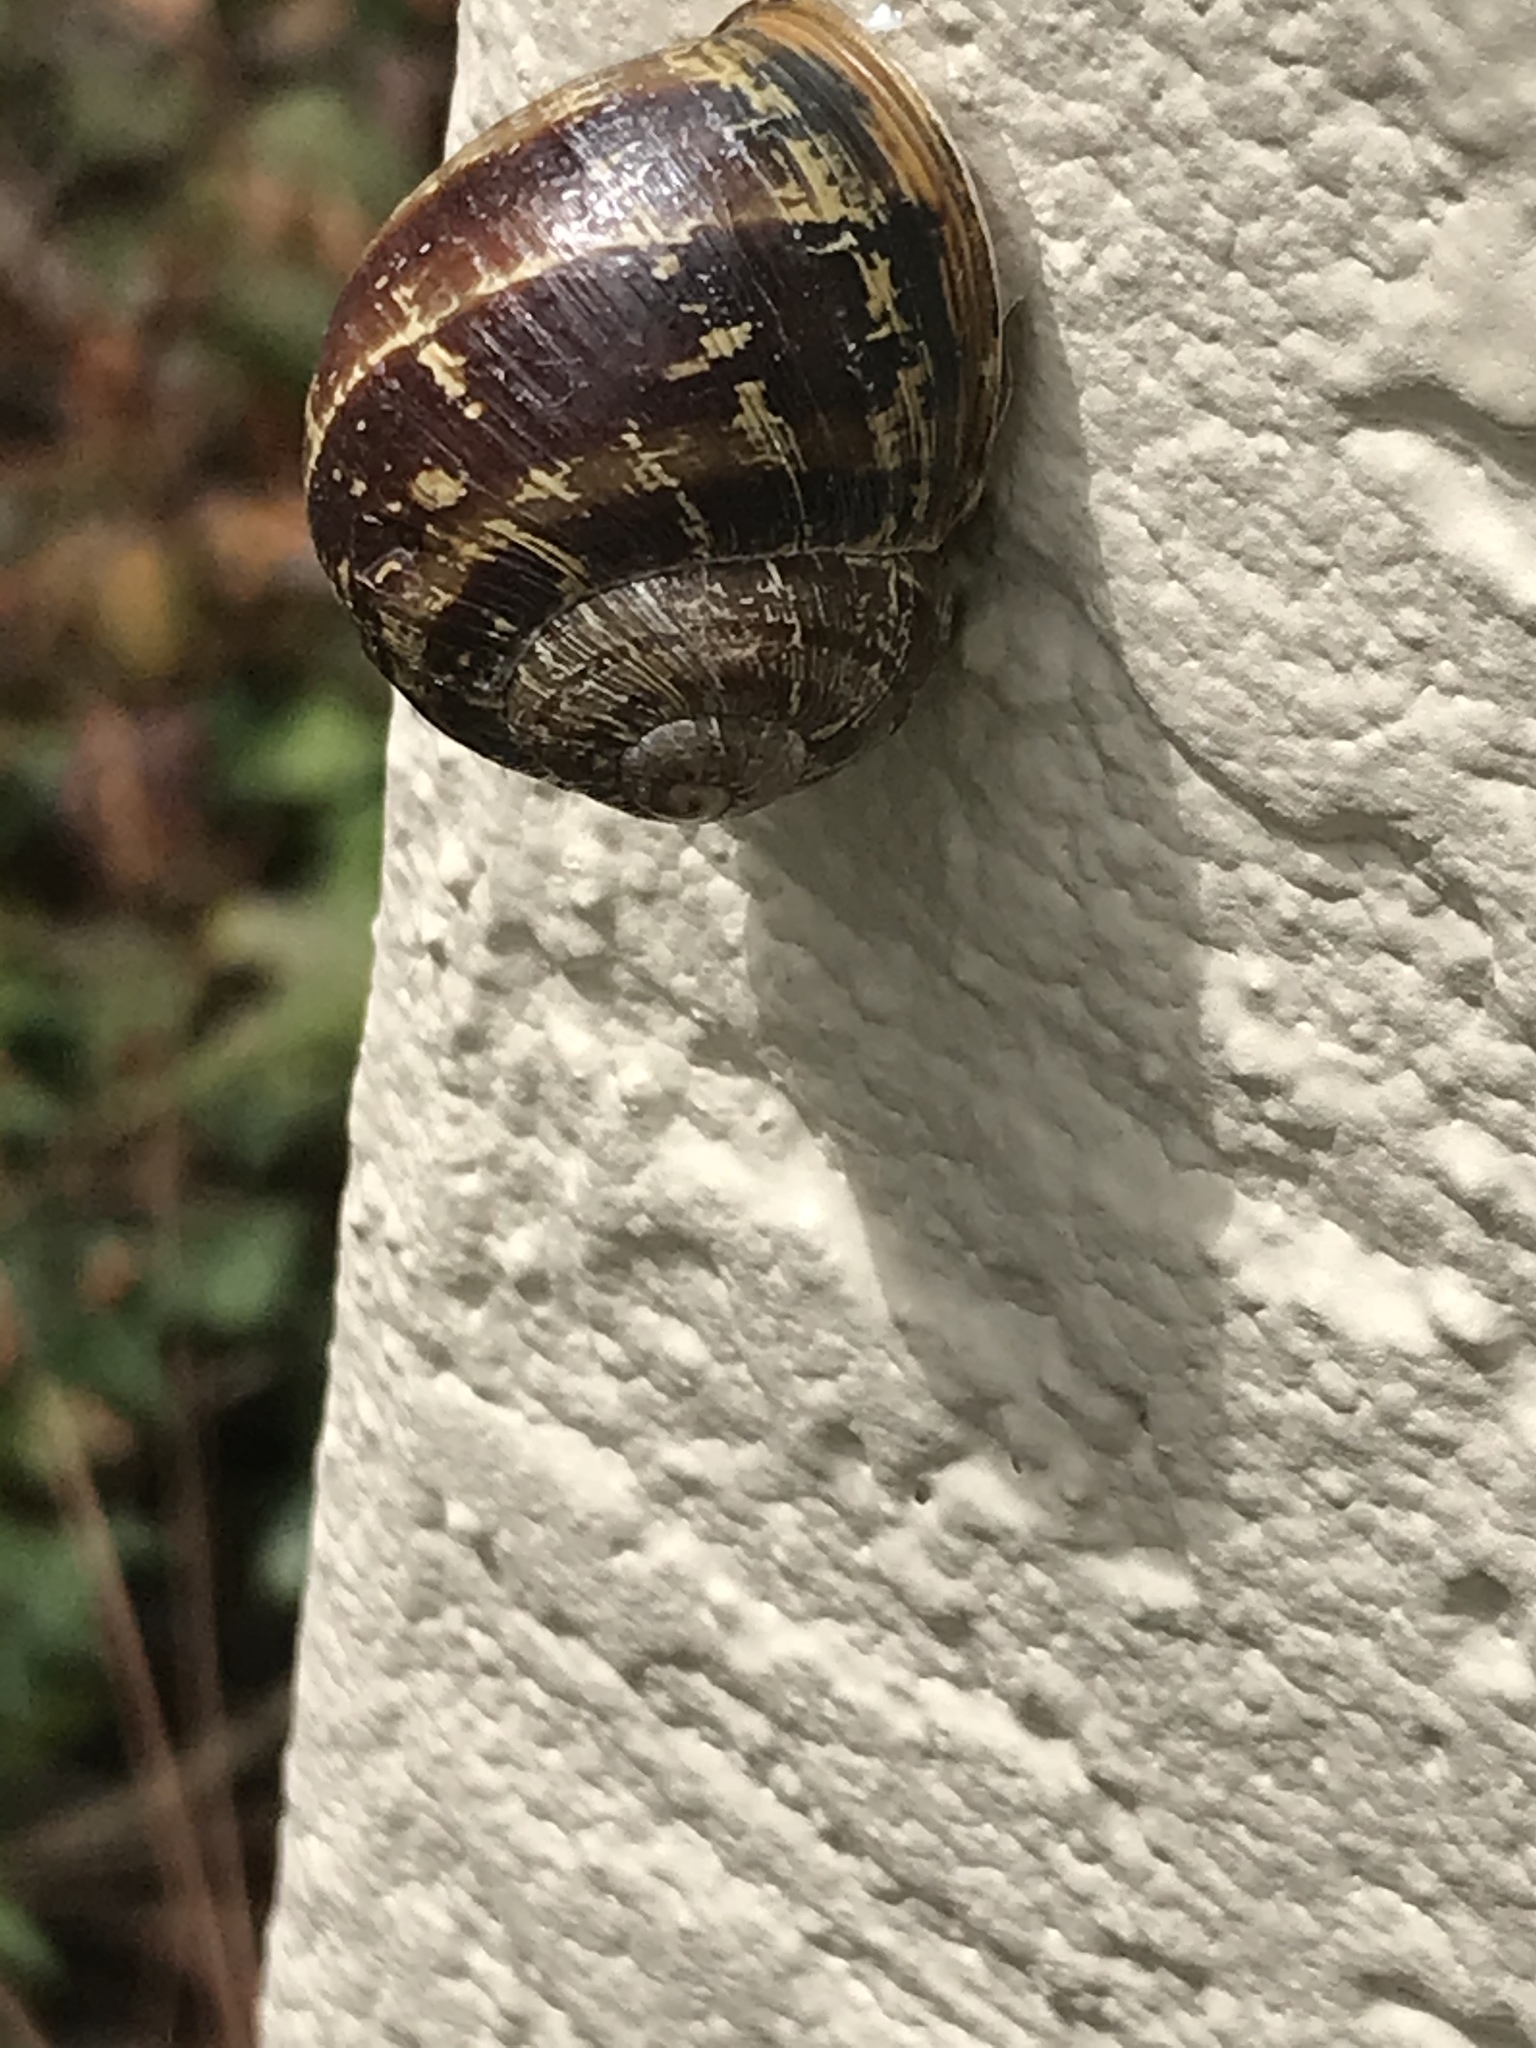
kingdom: Animalia
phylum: Mollusca
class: Gastropoda
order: Stylommatophora
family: Helicidae
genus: Cornu
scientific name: Cornu aspersum
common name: Brown garden snail
